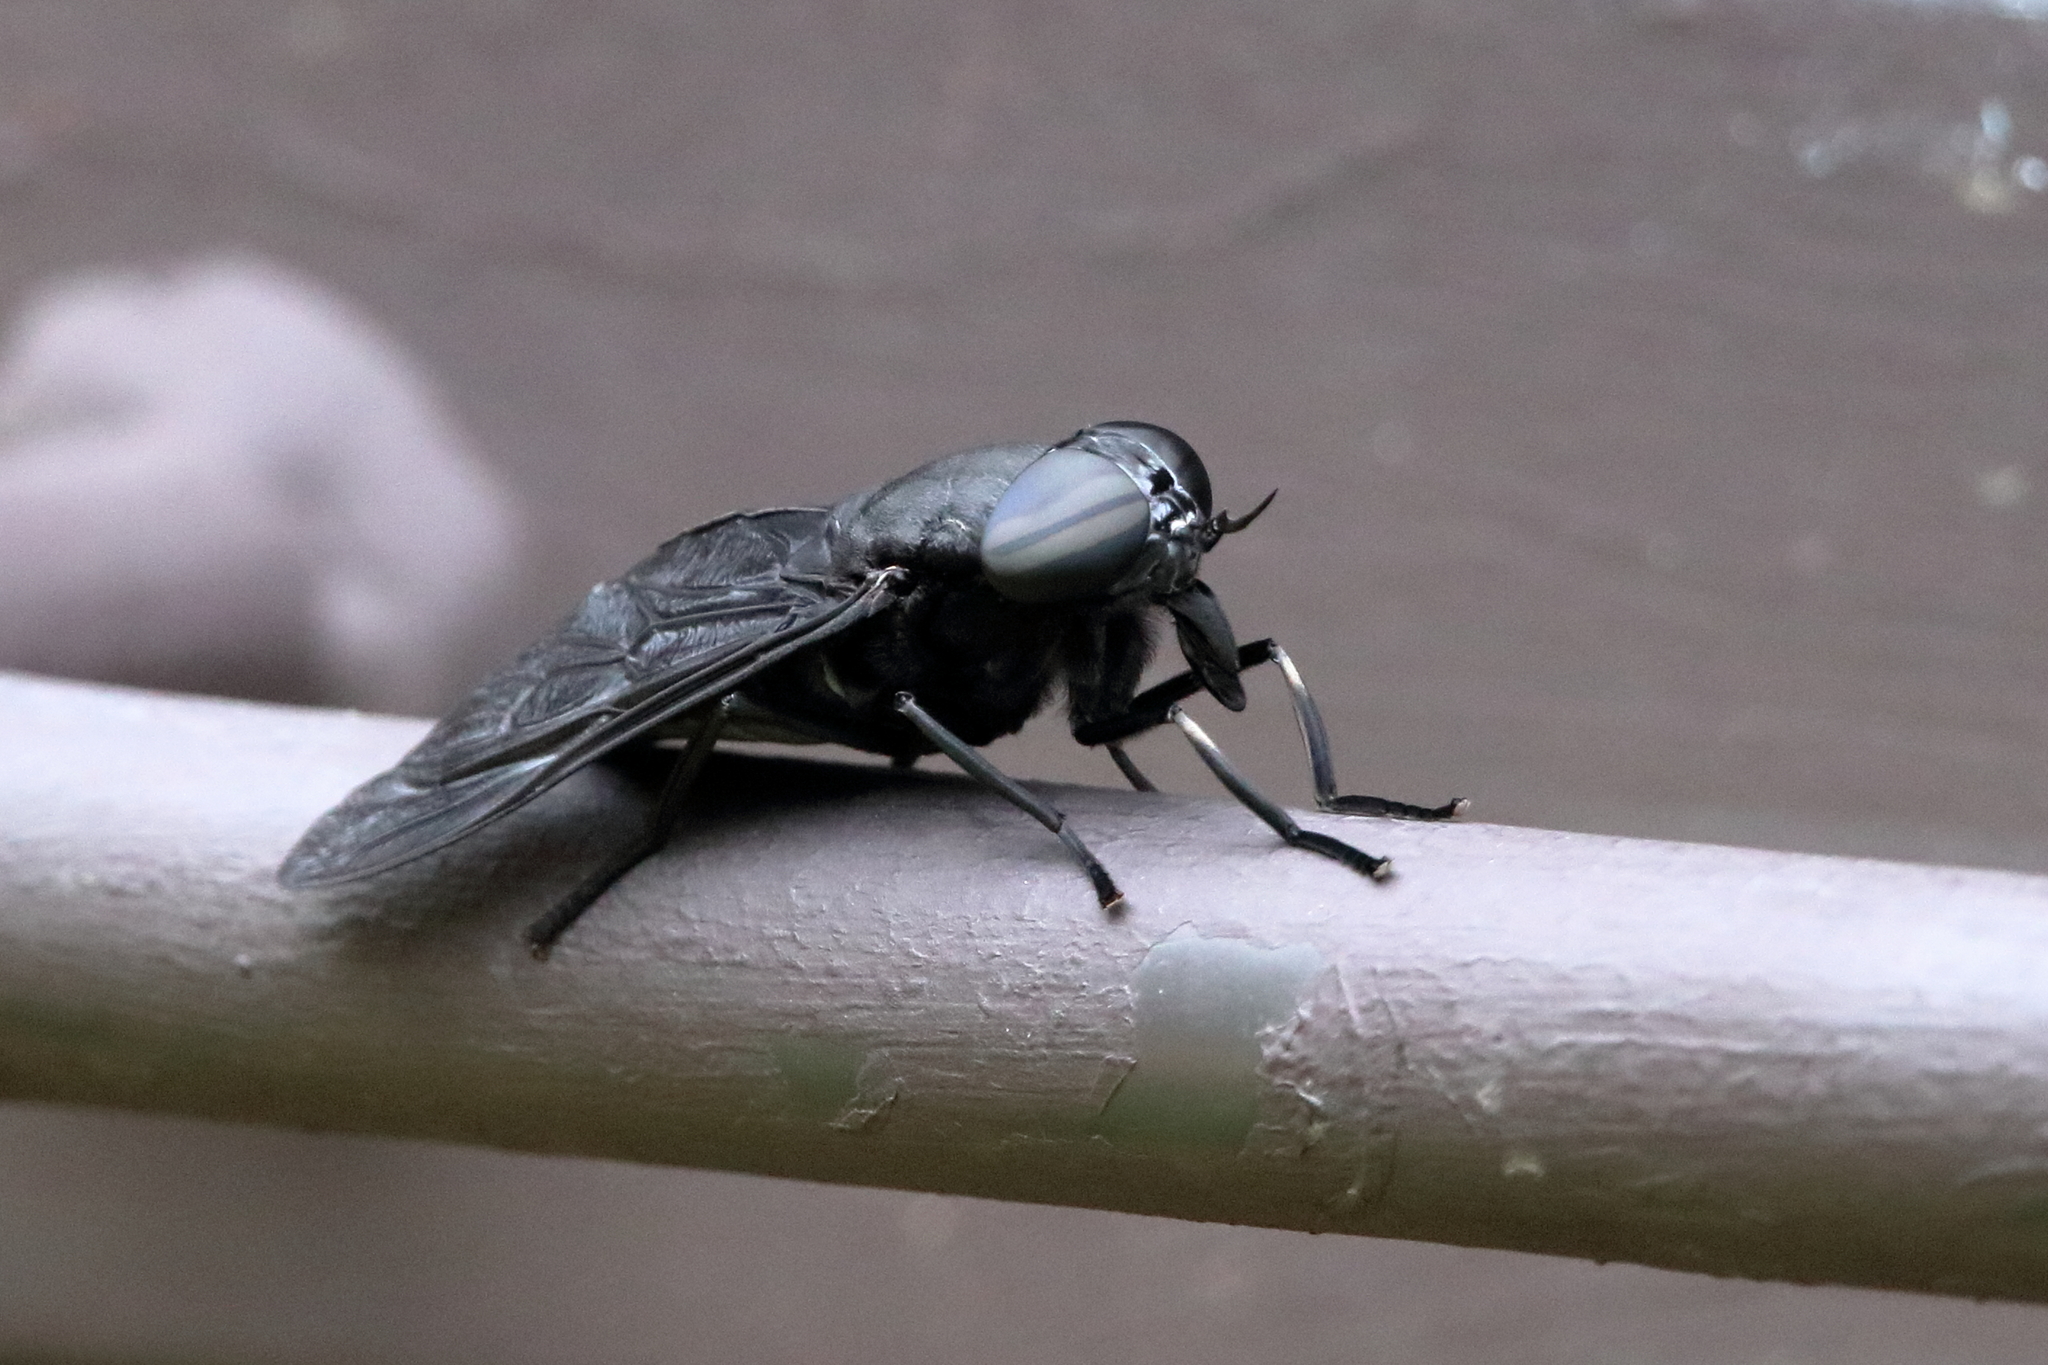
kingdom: Animalia
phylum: Arthropoda
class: Insecta
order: Diptera
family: Tabanidae
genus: Tabanus
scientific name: Tabanus atratus
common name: Black horse fly
